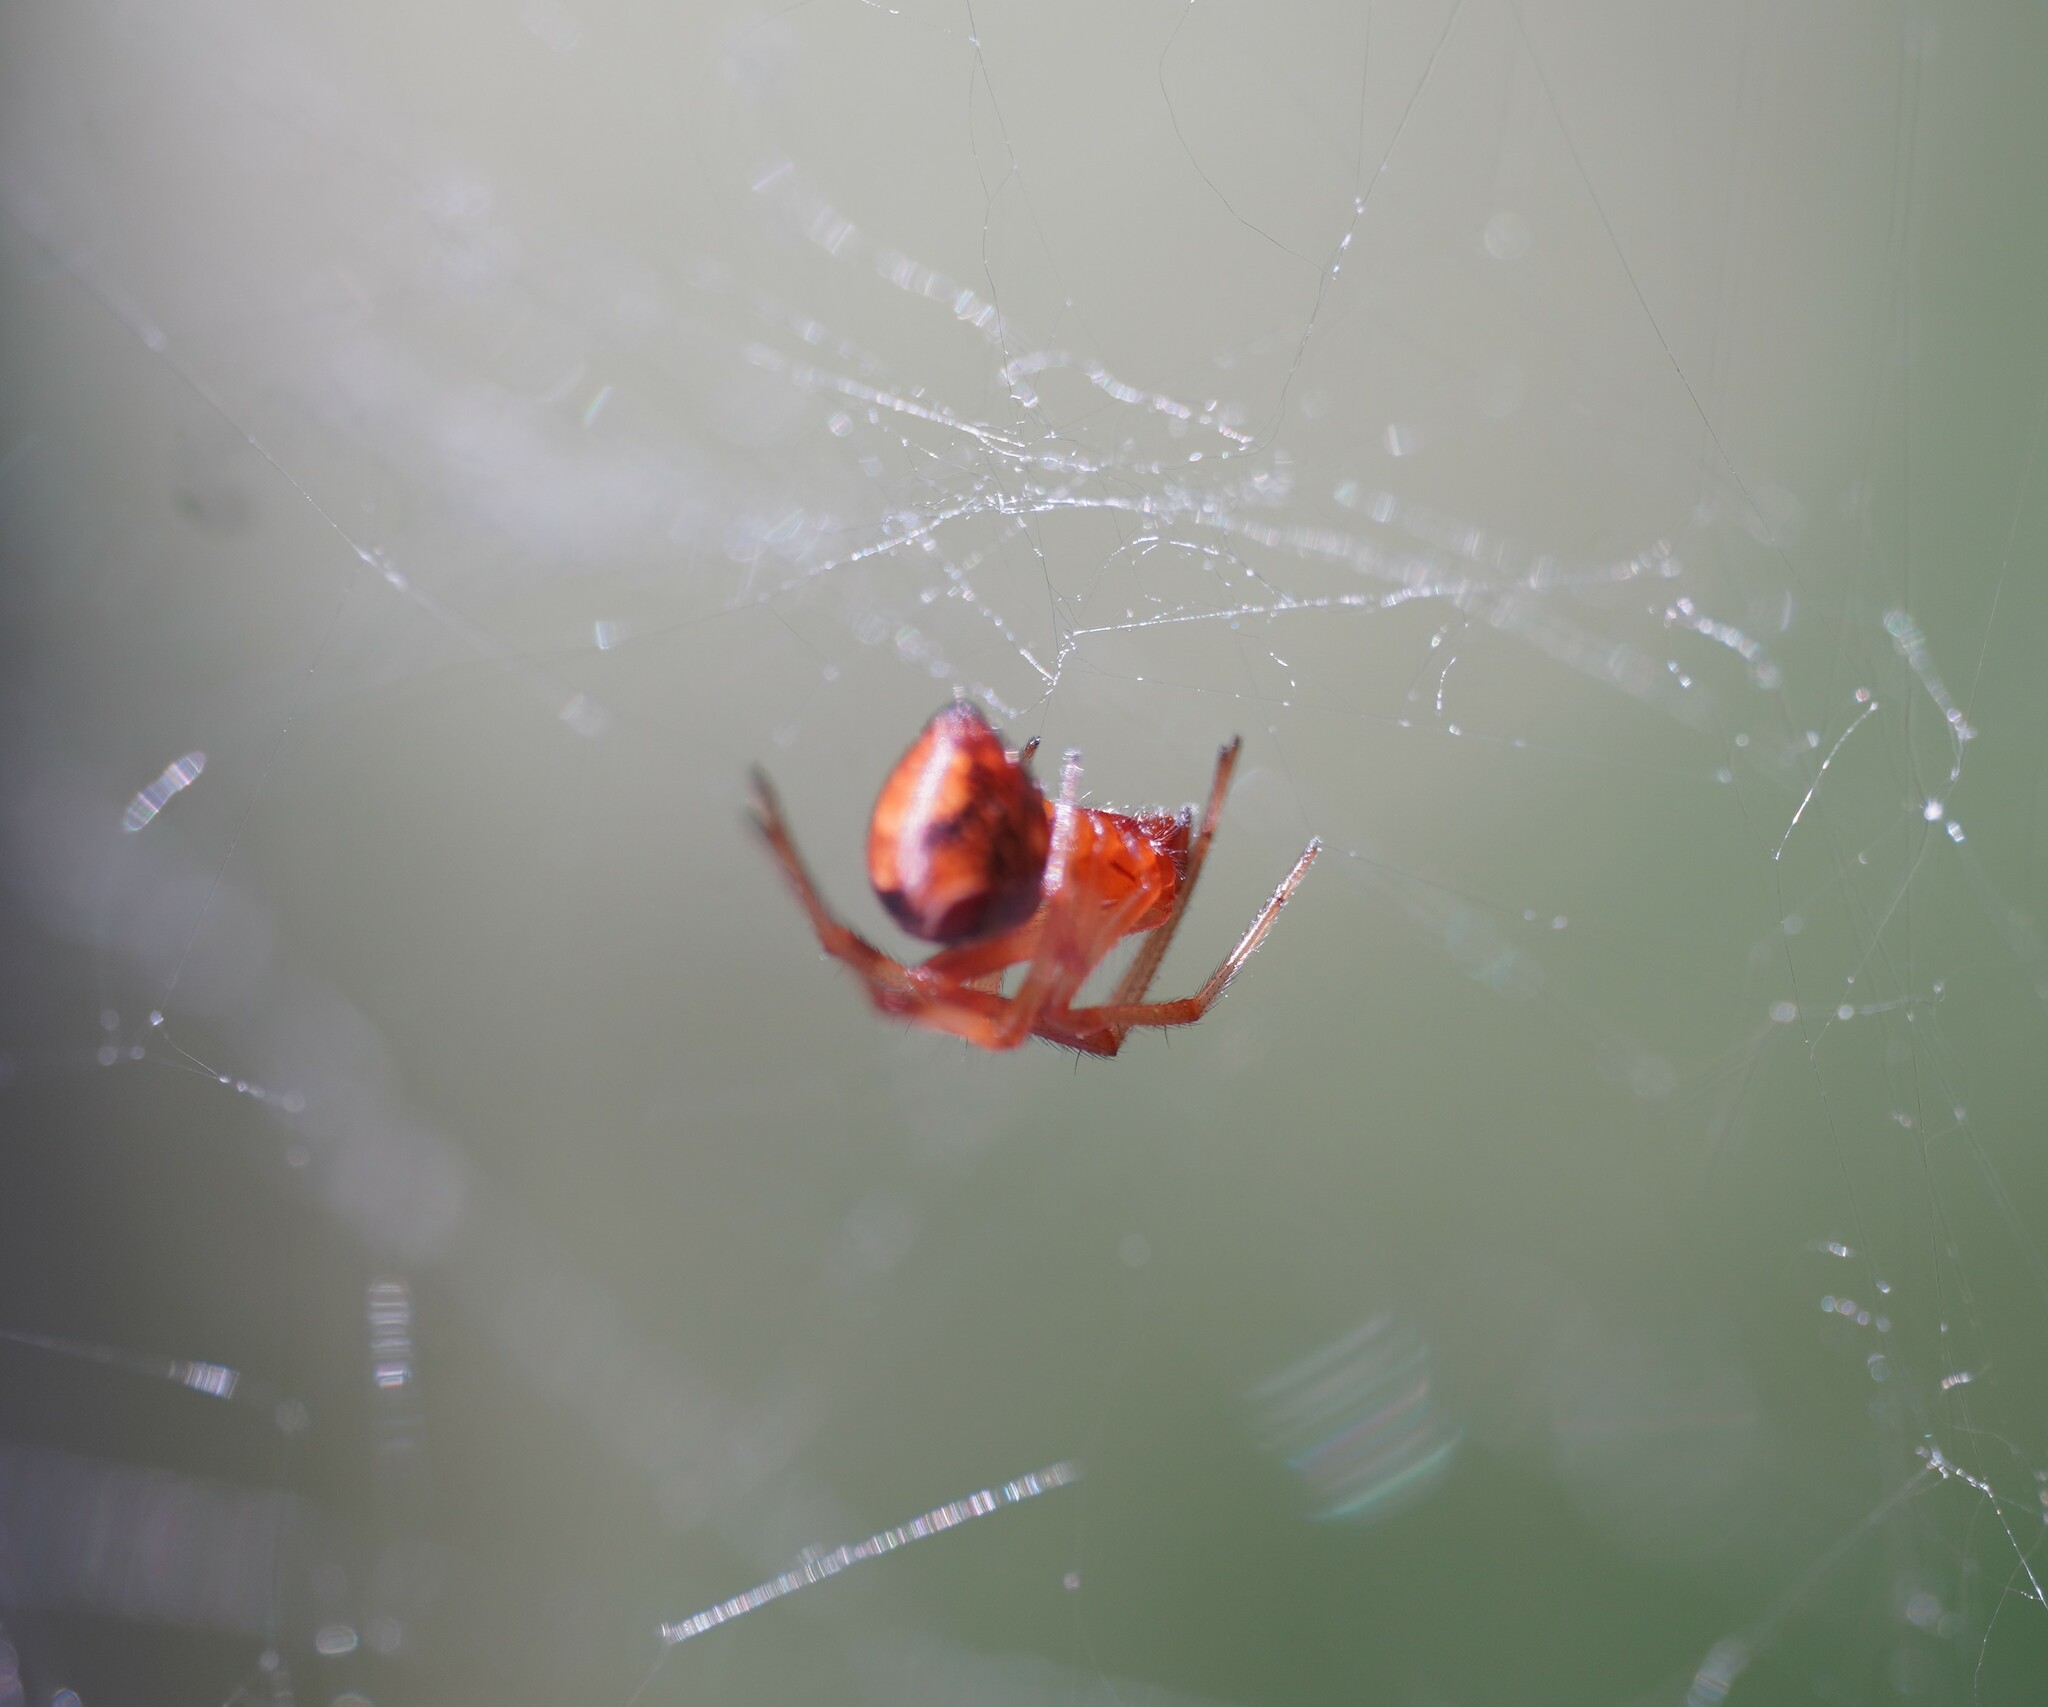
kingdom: Animalia
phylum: Arthropoda
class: Arachnida
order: Araneae
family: Theridiidae
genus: Parasteatoda
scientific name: Parasteatoda lunata
